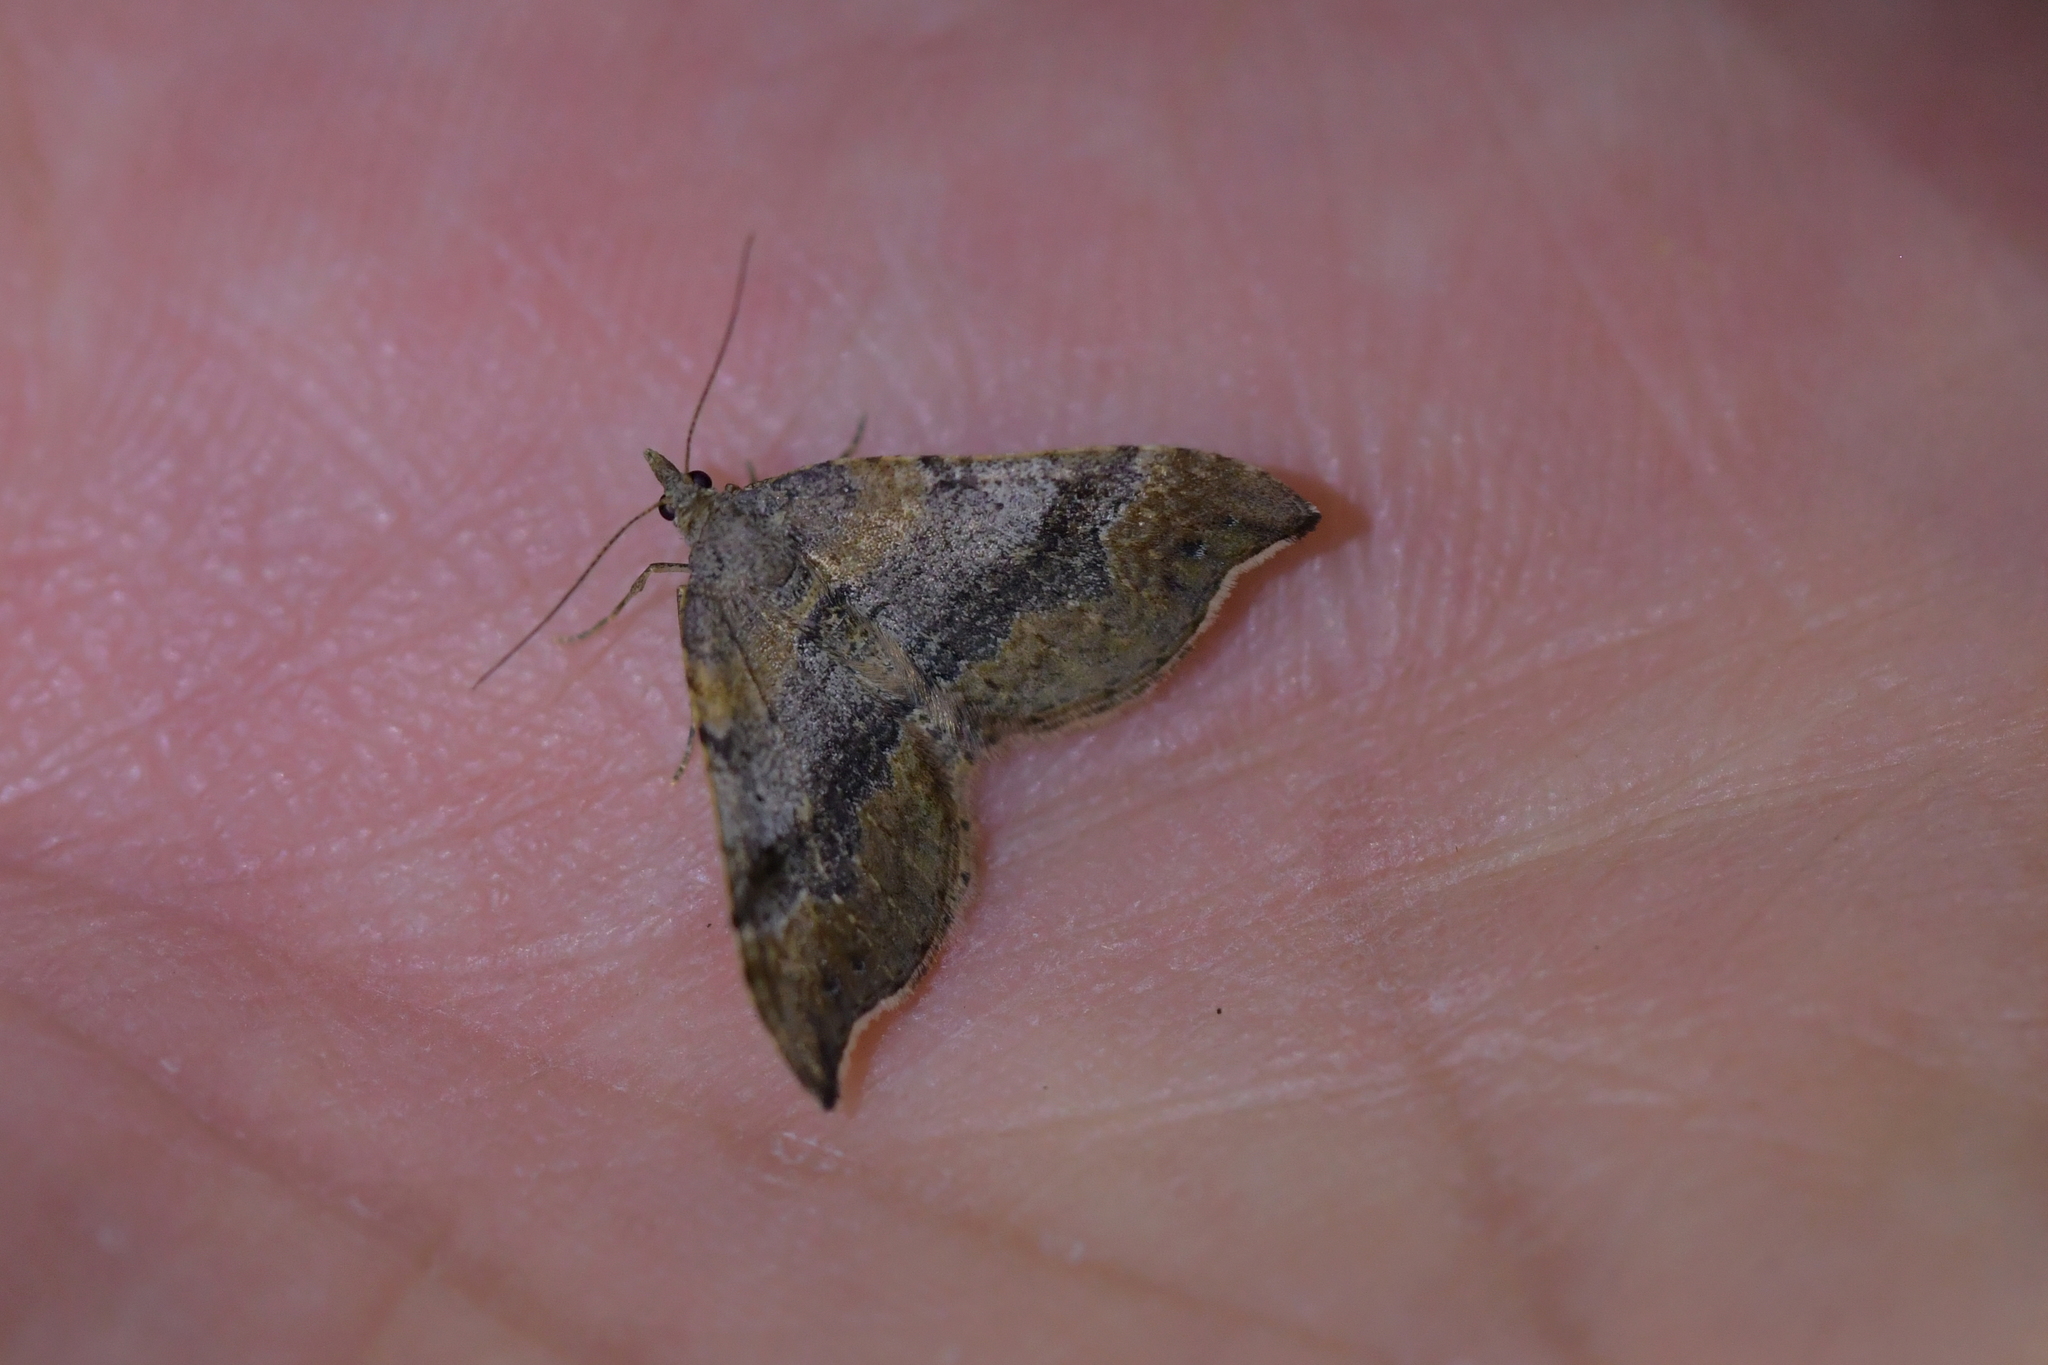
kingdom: Animalia
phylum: Arthropoda
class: Insecta
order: Lepidoptera
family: Geometridae
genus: Homodotis
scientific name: Homodotis megaspilata
